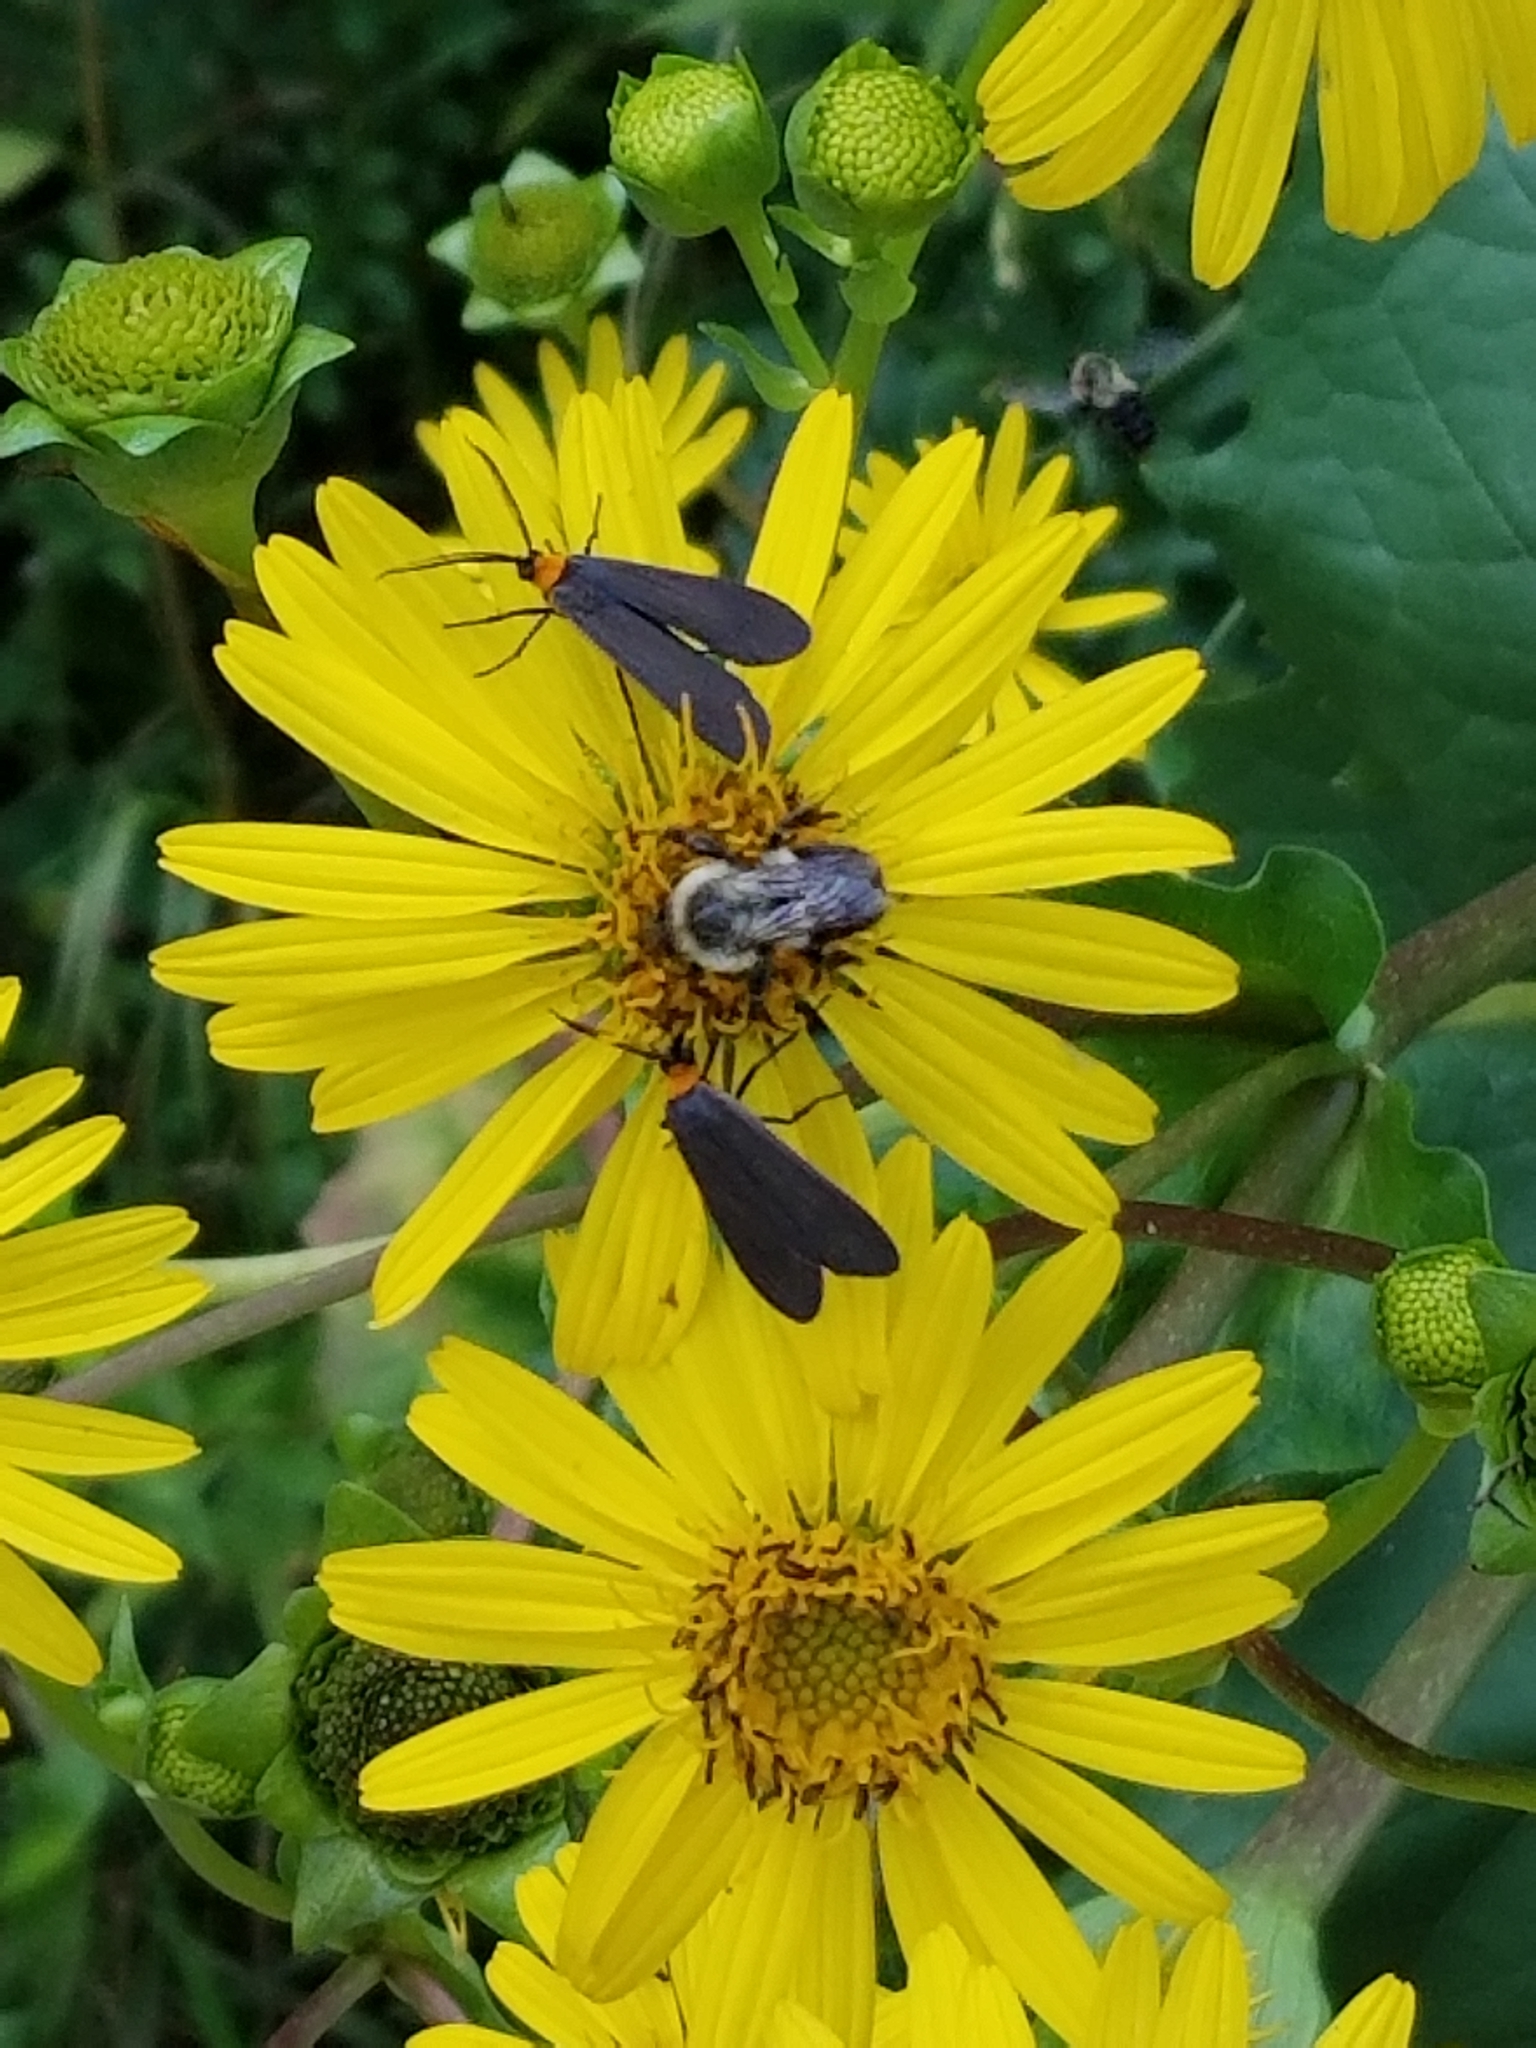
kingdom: Animalia
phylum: Arthropoda
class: Insecta
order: Lepidoptera
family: Erebidae
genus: Cisseps
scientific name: Cisseps fulvicollis
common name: Yellow-collared scape moth
